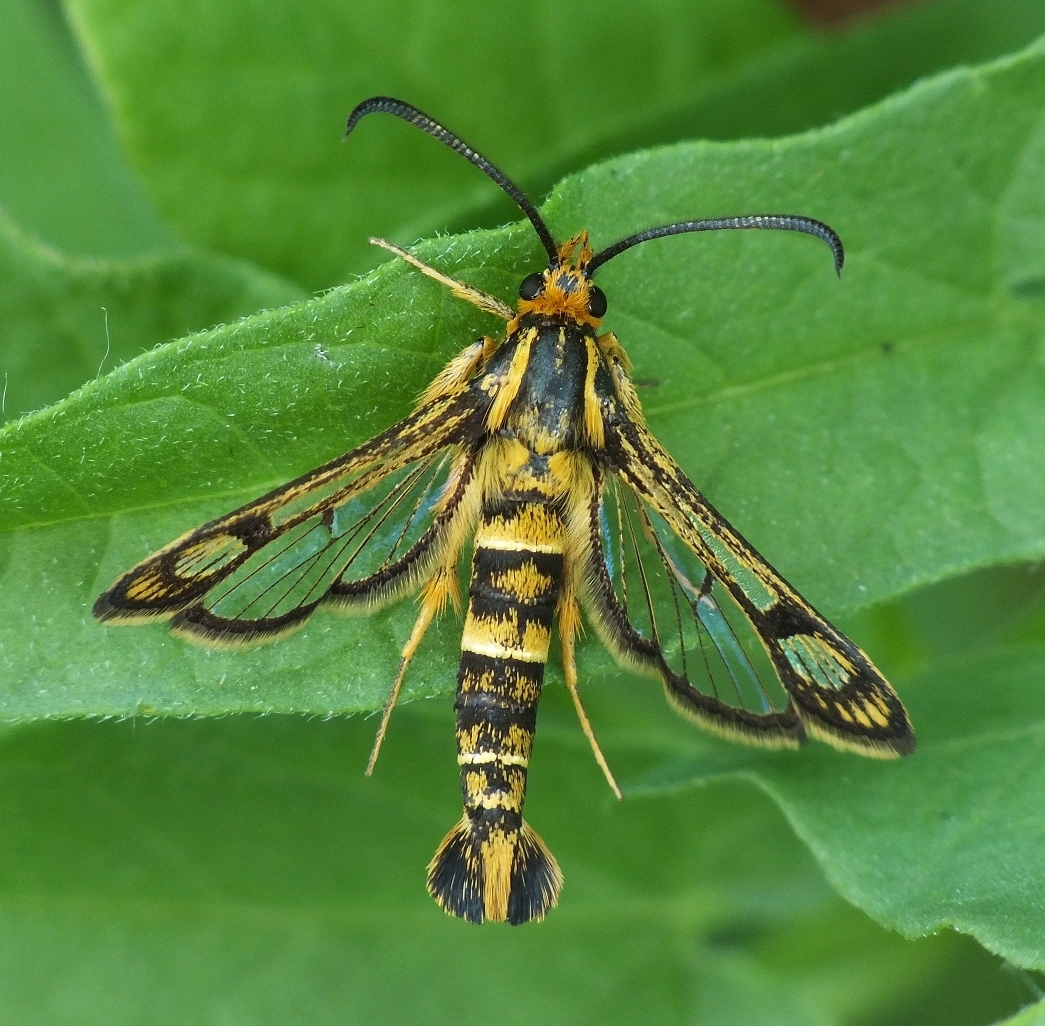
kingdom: Animalia
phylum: Arthropoda
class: Insecta
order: Lepidoptera
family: Sesiidae
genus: Chamaesphecia
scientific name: Chamaesphecia empiformis
